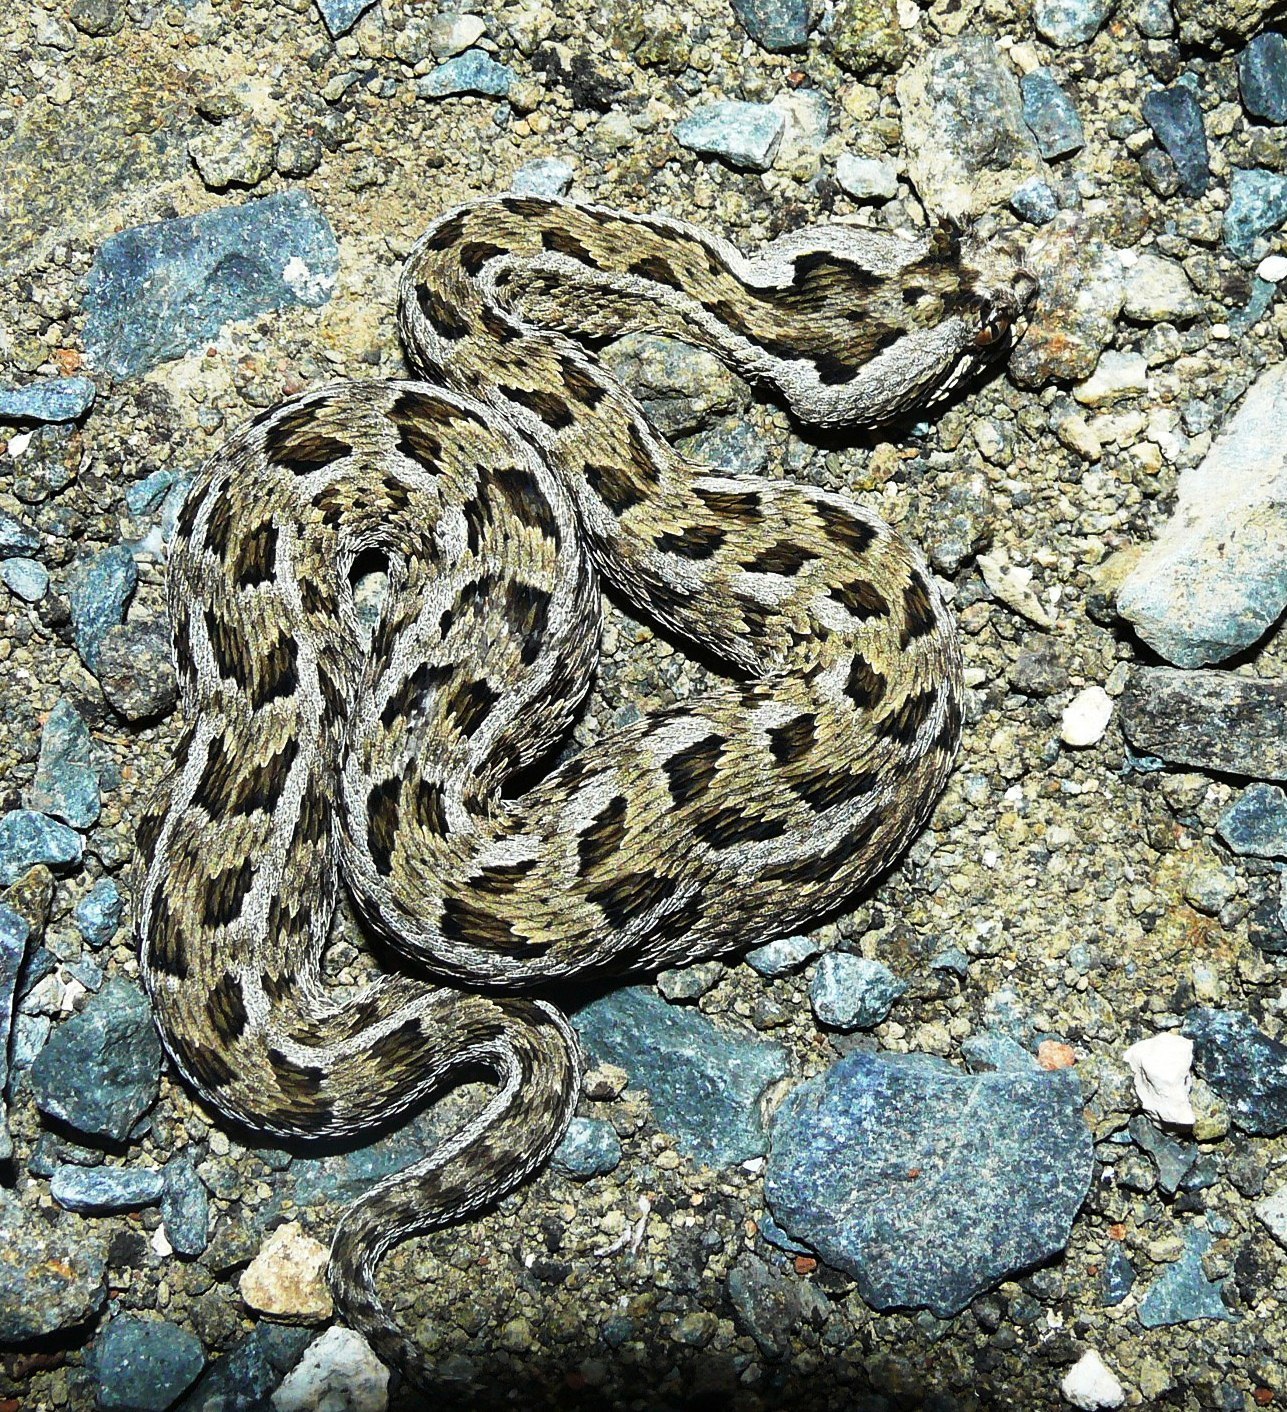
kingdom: Animalia
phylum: Chordata
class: Squamata
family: Viperidae
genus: Bitis
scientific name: Bitis cornuta
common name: Many-horned adder
